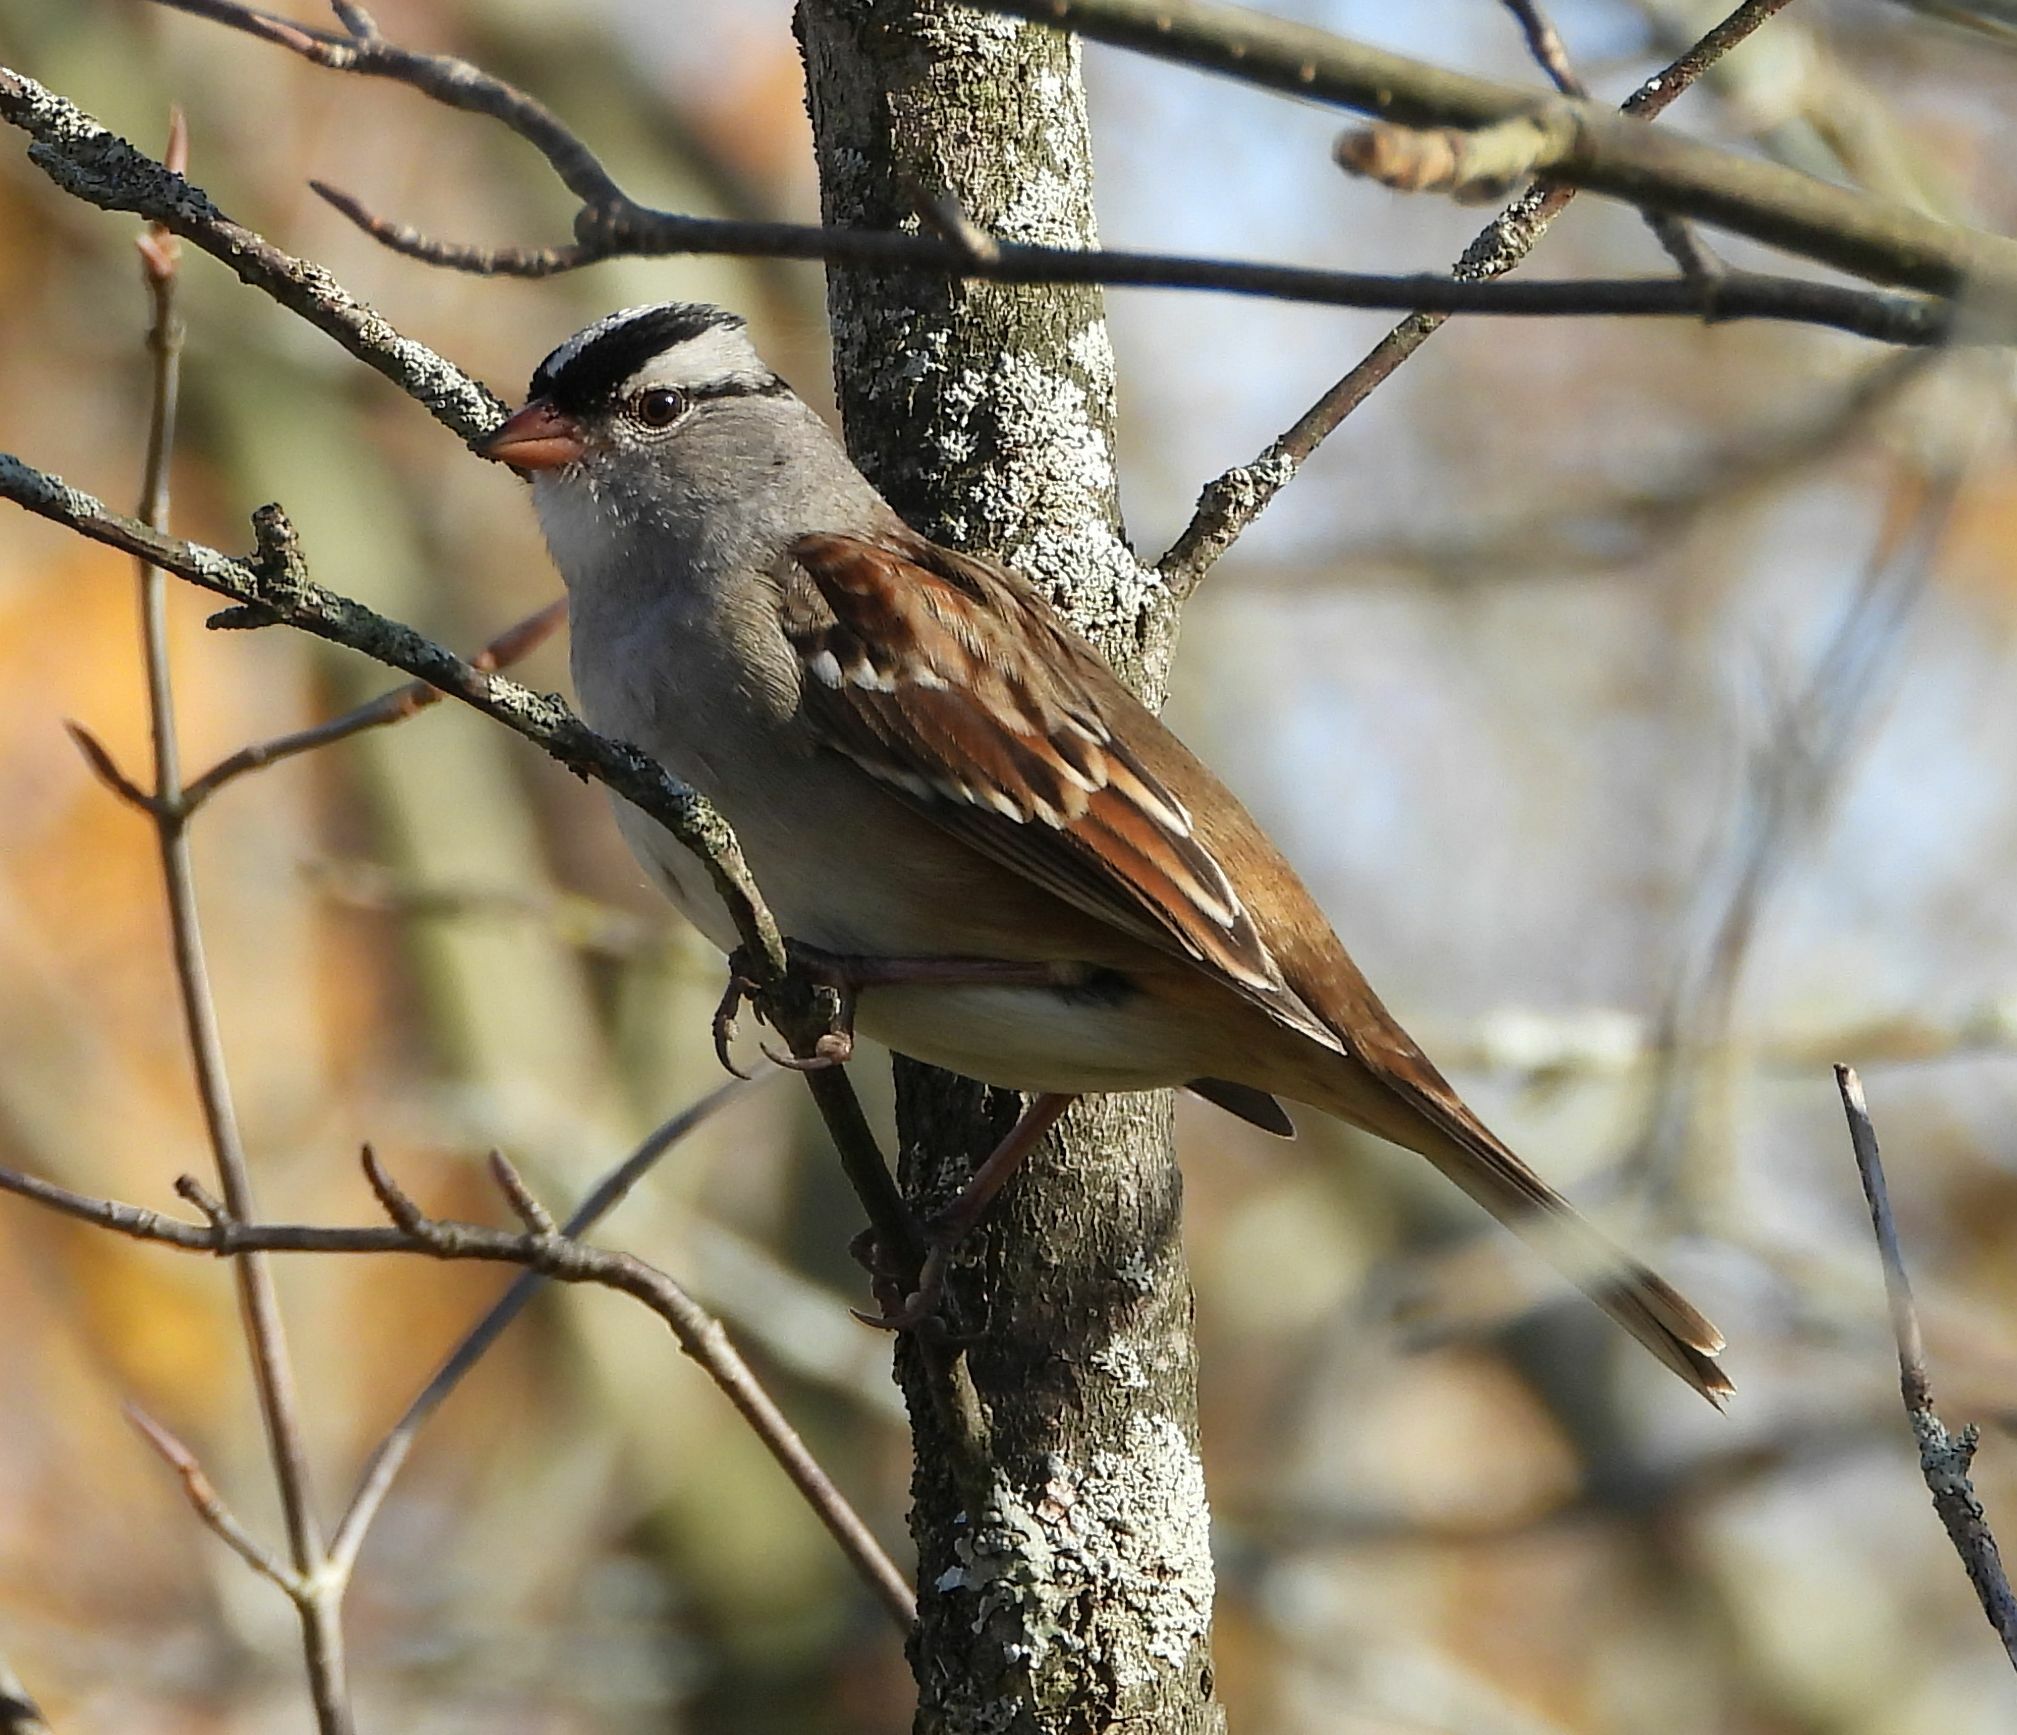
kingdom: Animalia
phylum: Chordata
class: Aves
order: Passeriformes
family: Passerellidae
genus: Zonotrichia
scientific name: Zonotrichia leucophrys
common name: White-crowned sparrow
